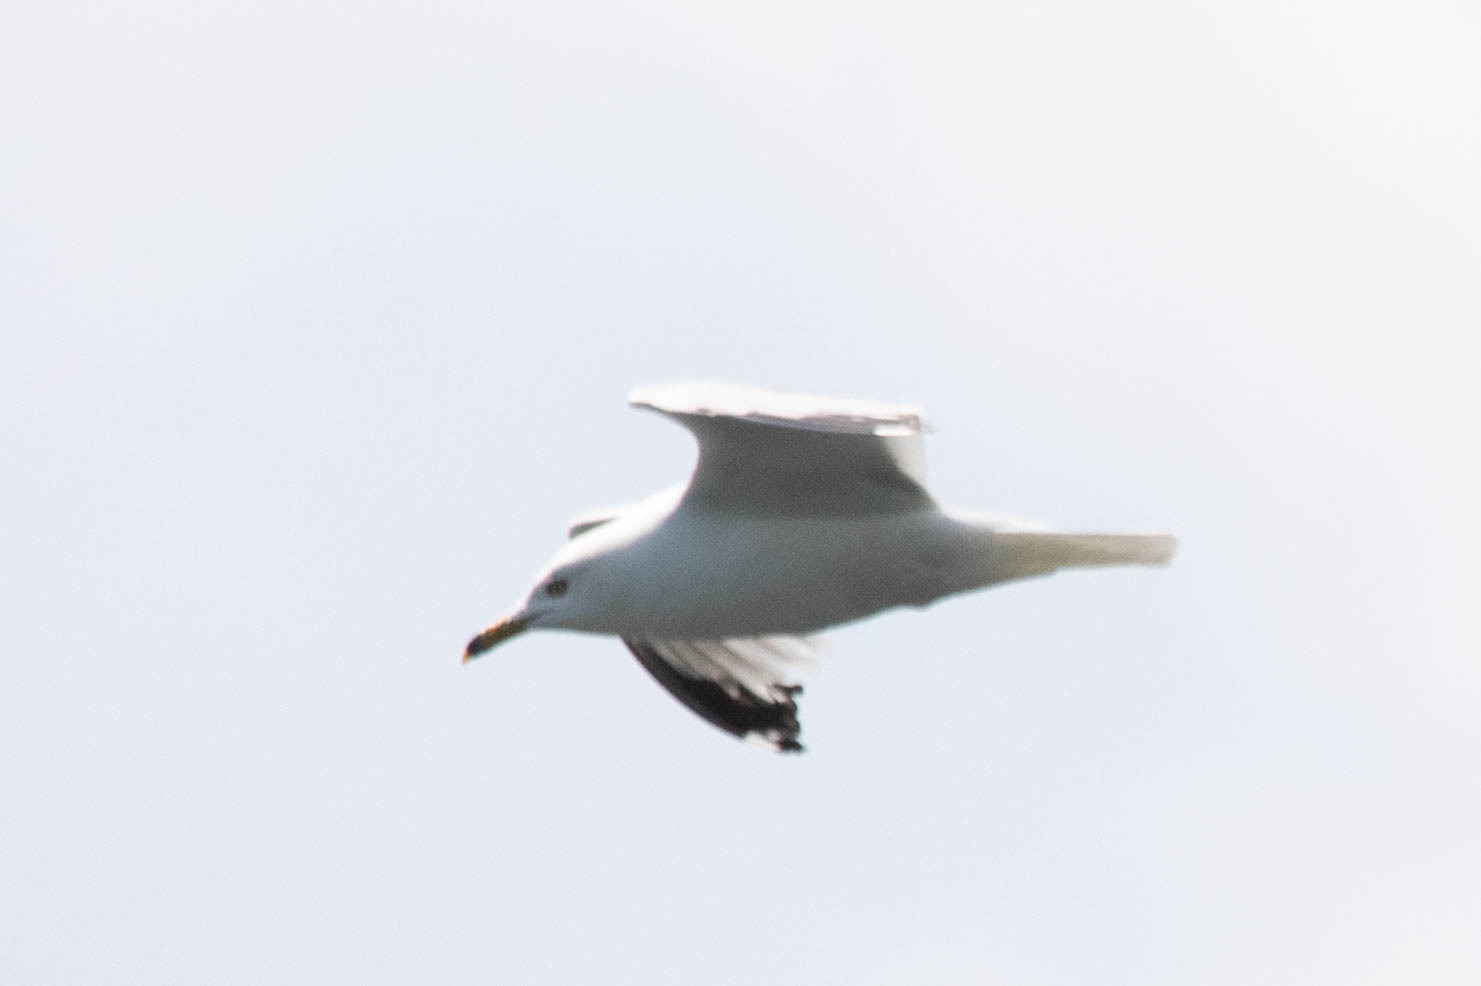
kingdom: Animalia
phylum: Chordata
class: Aves
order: Charadriiformes
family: Laridae
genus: Larus
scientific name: Larus delawarensis
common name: Ring-billed gull
